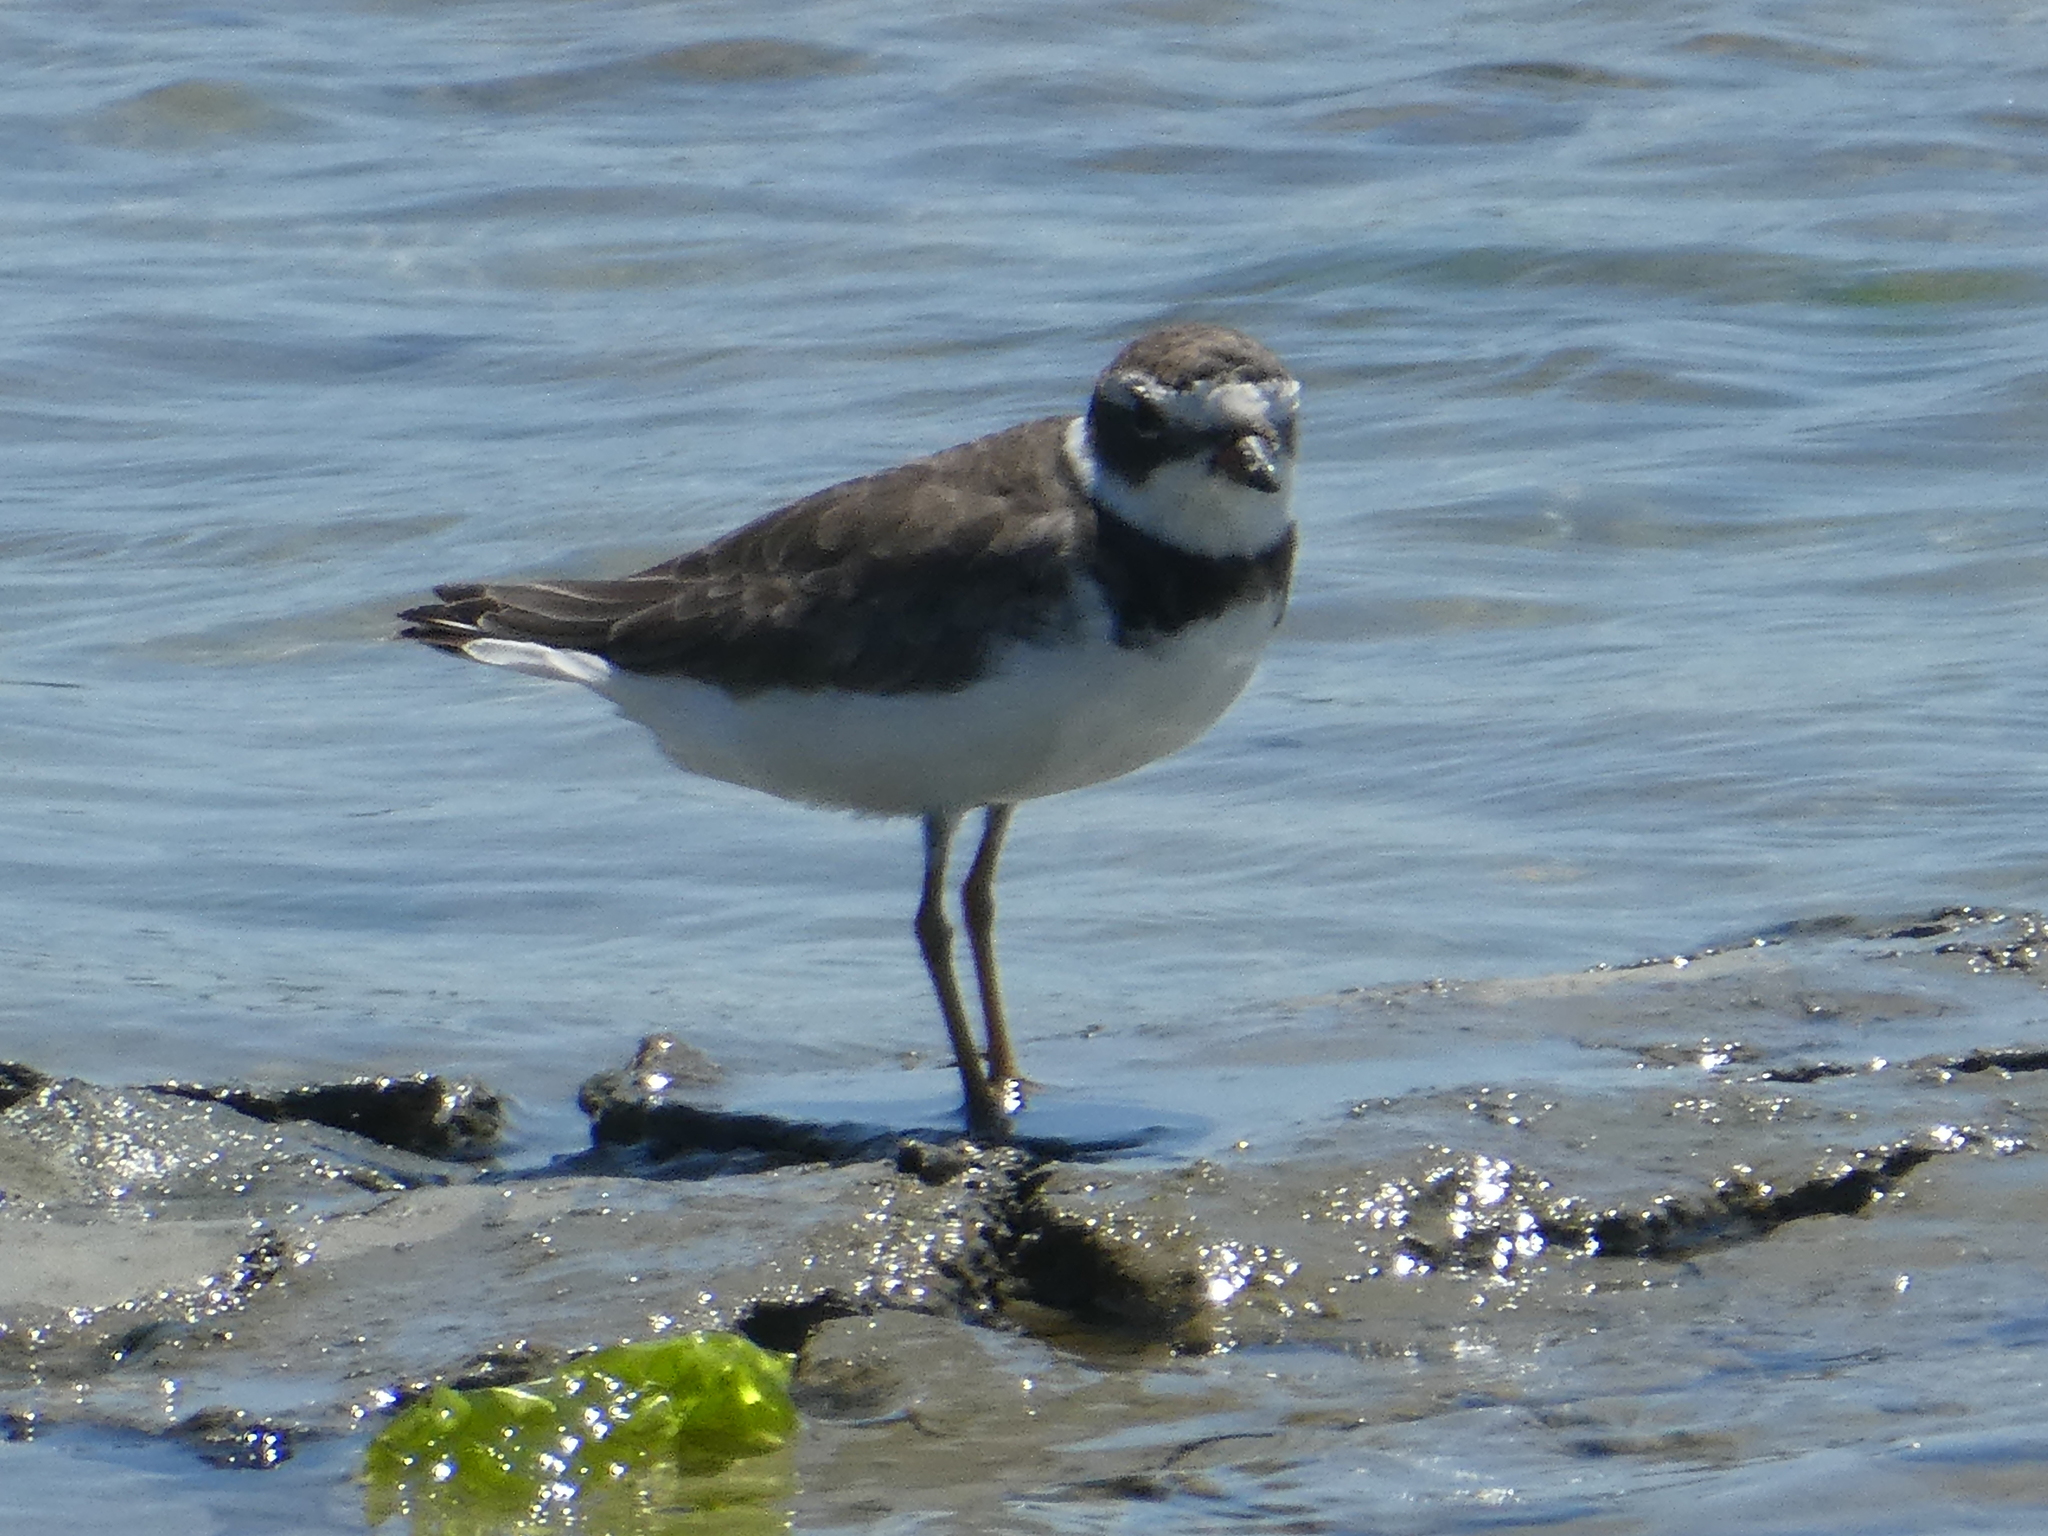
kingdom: Animalia
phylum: Chordata
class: Aves
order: Charadriiformes
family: Charadriidae
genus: Charadrius
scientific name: Charadrius semipalmatus
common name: Semipalmated plover
